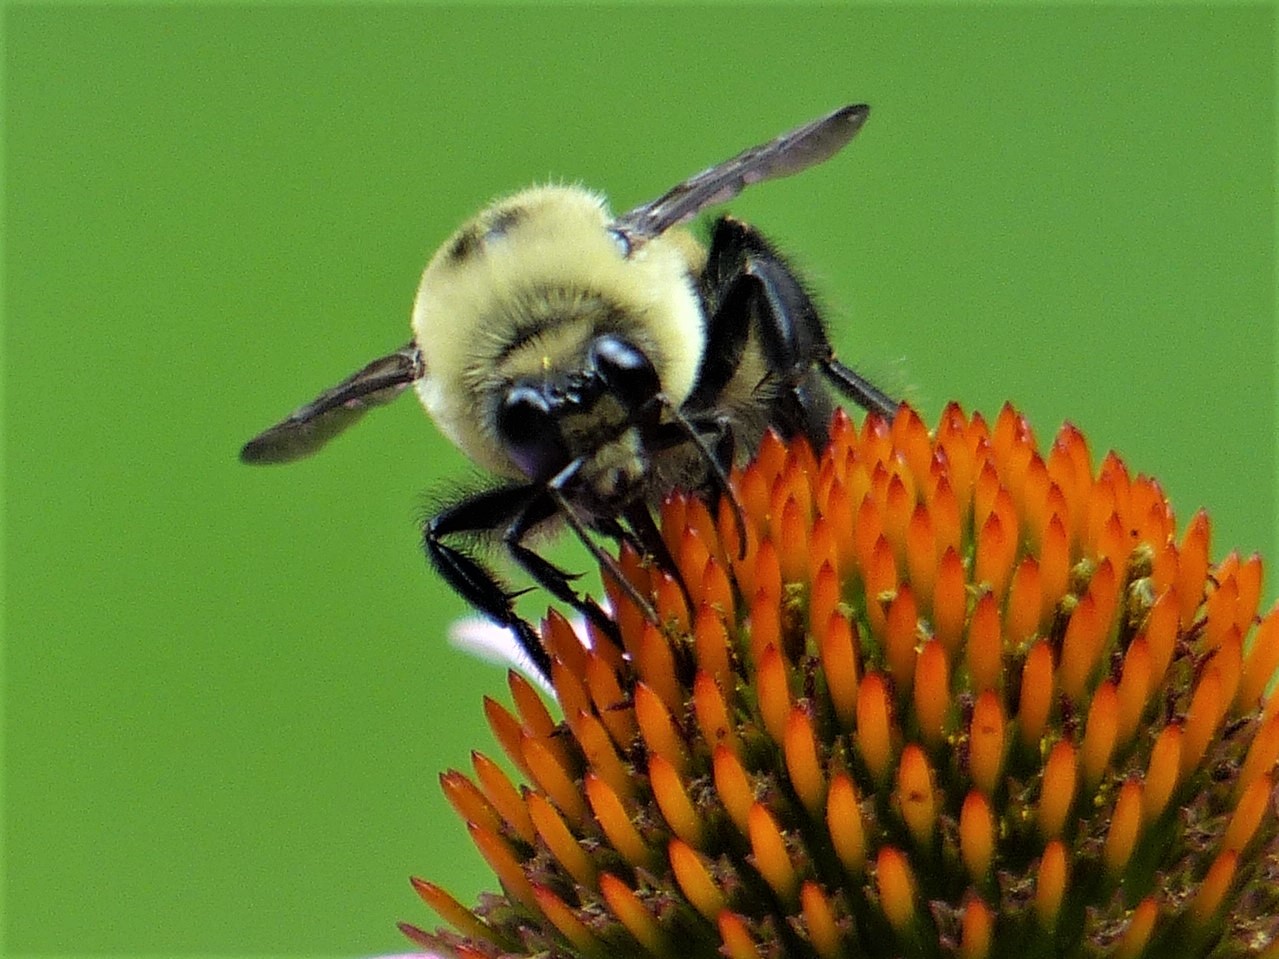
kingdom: Animalia
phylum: Arthropoda
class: Insecta
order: Hymenoptera
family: Apidae
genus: Bombus
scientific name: Bombus griseocollis
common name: Brown-belted bumble bee
